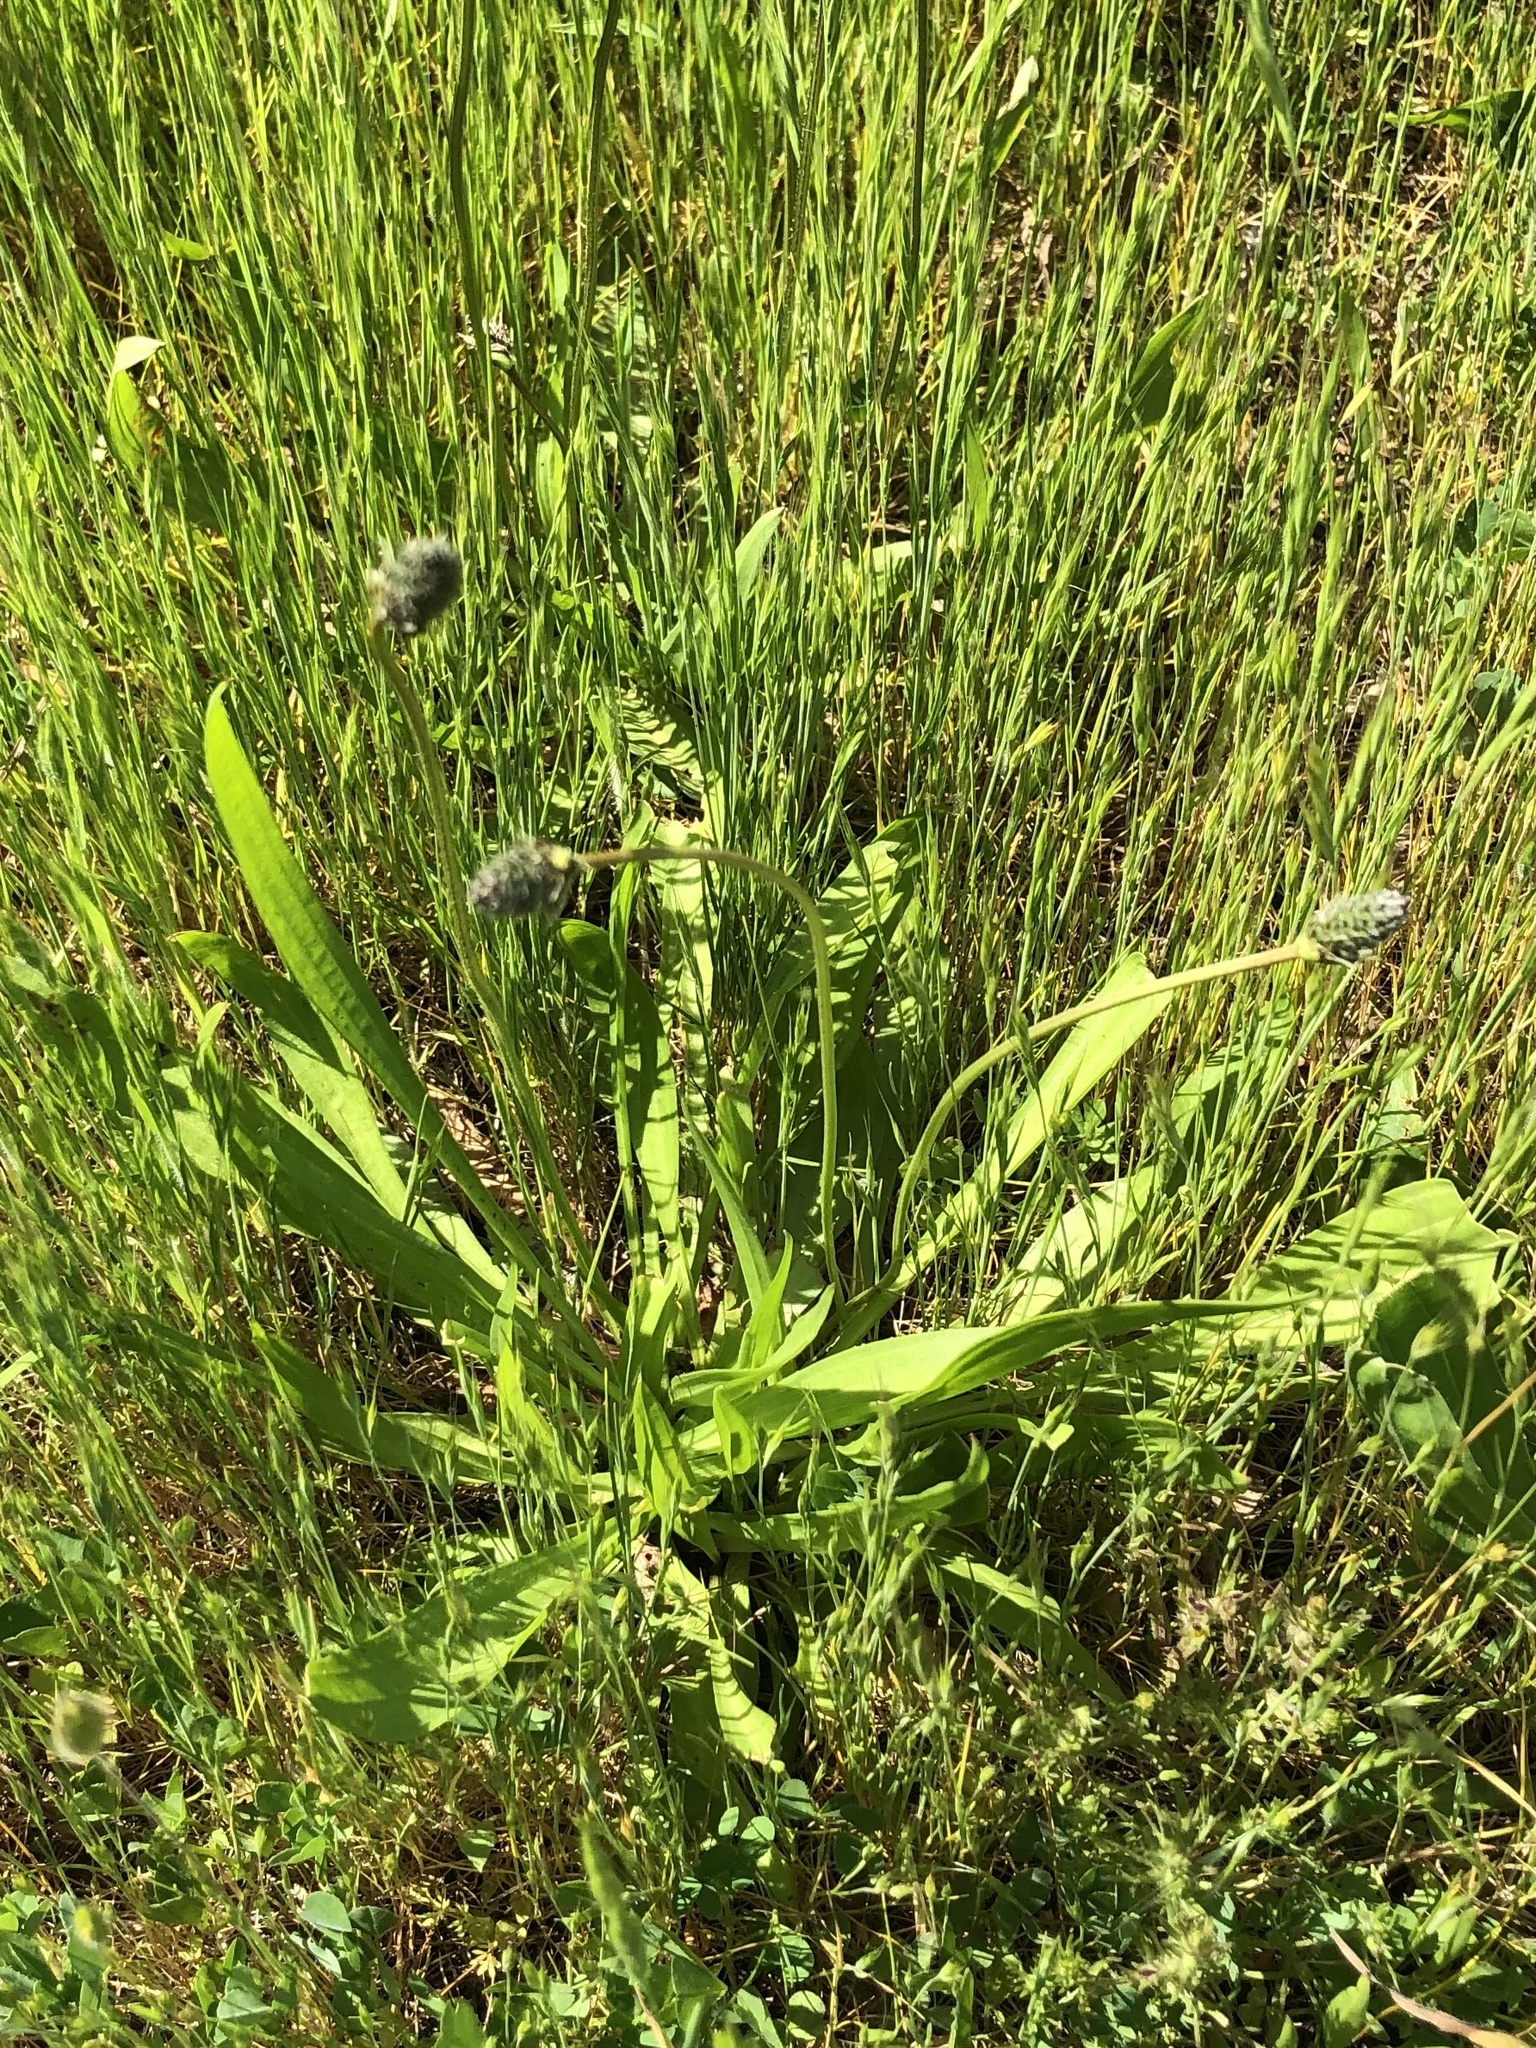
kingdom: Plantae
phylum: Tracheophyta
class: Magnoliopsida
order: Lamiales
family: Plantaginaceae
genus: Plantago
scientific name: Plantago lanceolata
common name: Ribwort plantain
